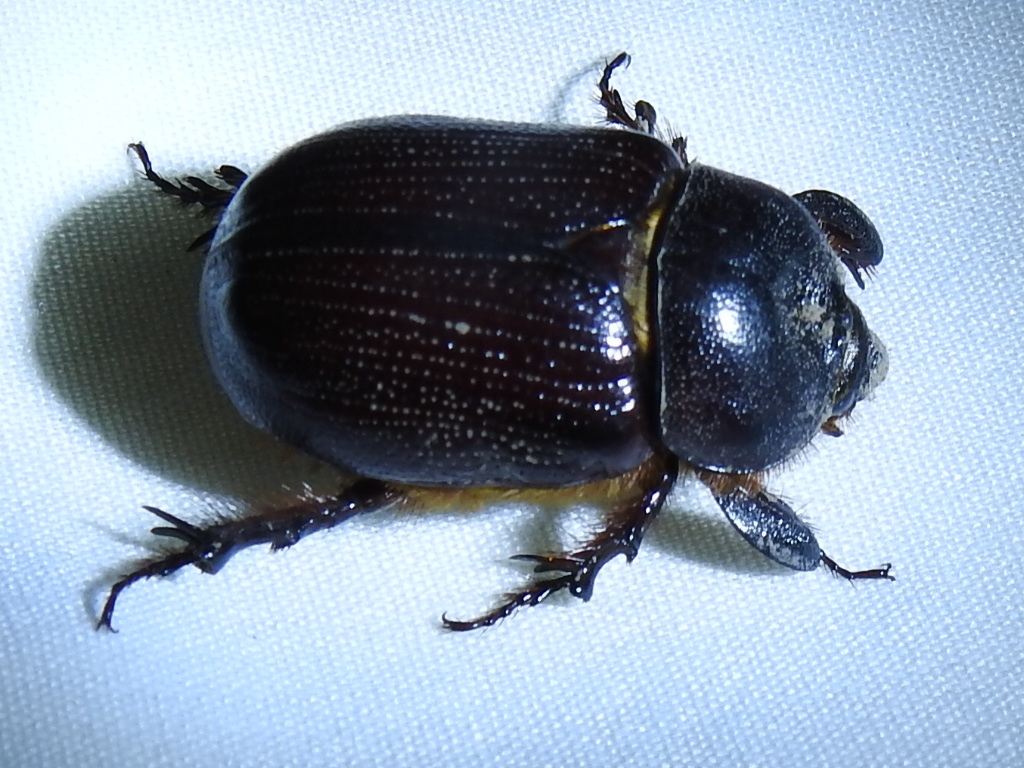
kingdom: Animalia
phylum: Arthropoda
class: Insecta
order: Coleoptera
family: Scarabaeidae
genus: Orizabus
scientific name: Orizabus clunalis
